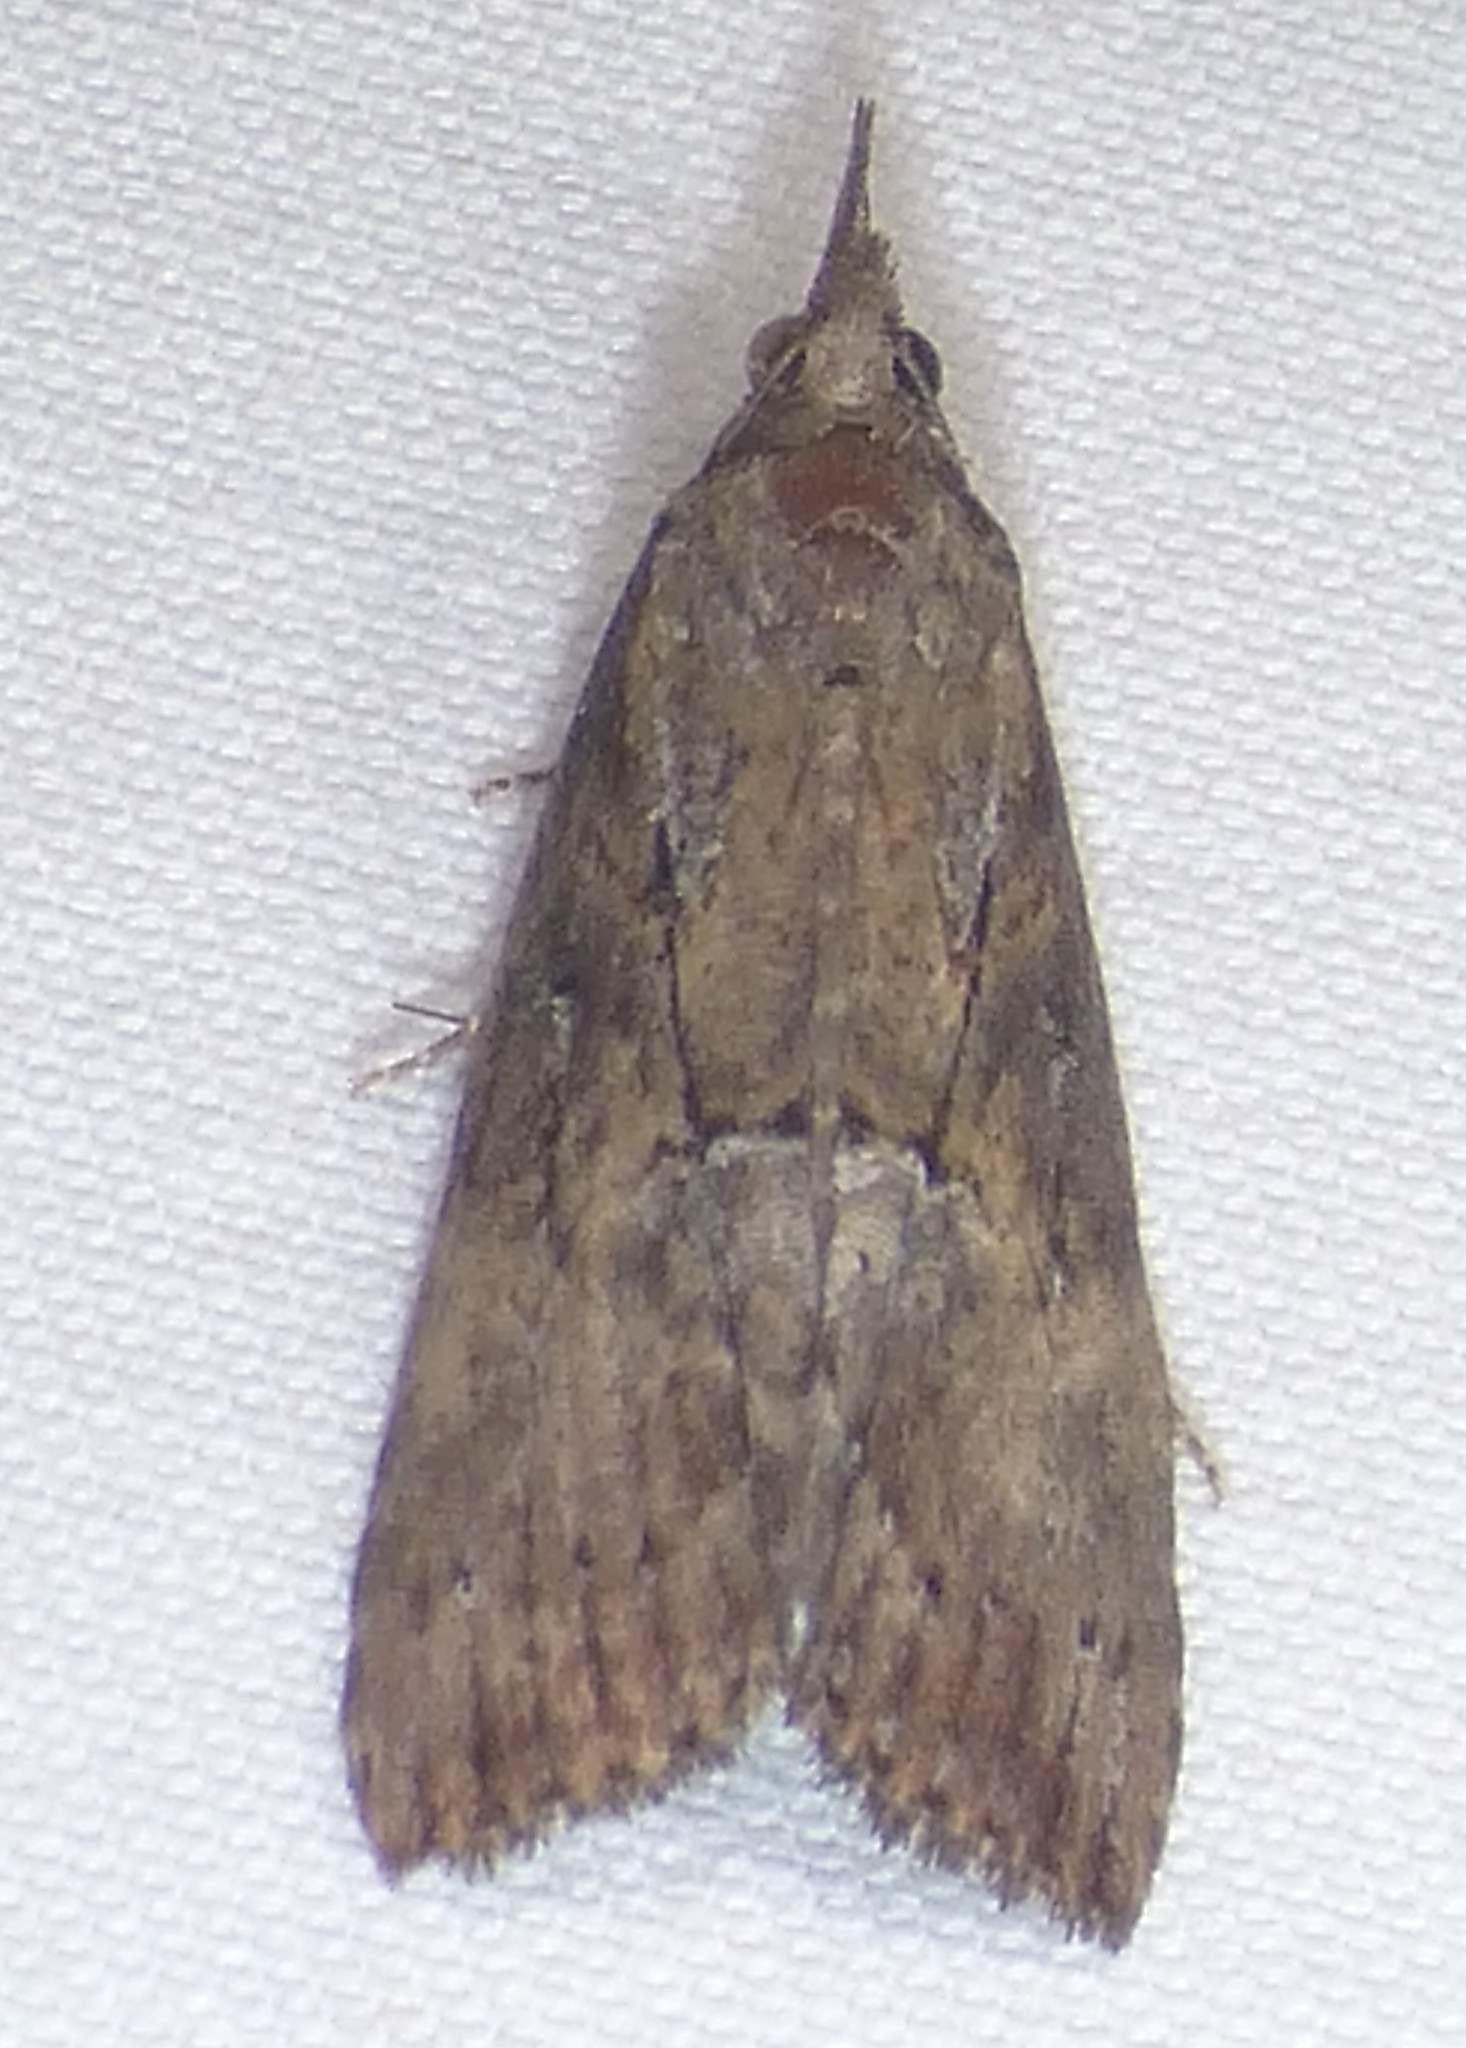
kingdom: Animalia
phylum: Arthropoda
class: Insecta
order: Lepidoptera
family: Erebidae
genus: Hypena
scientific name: Hypena scabra
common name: Green cloverworm
